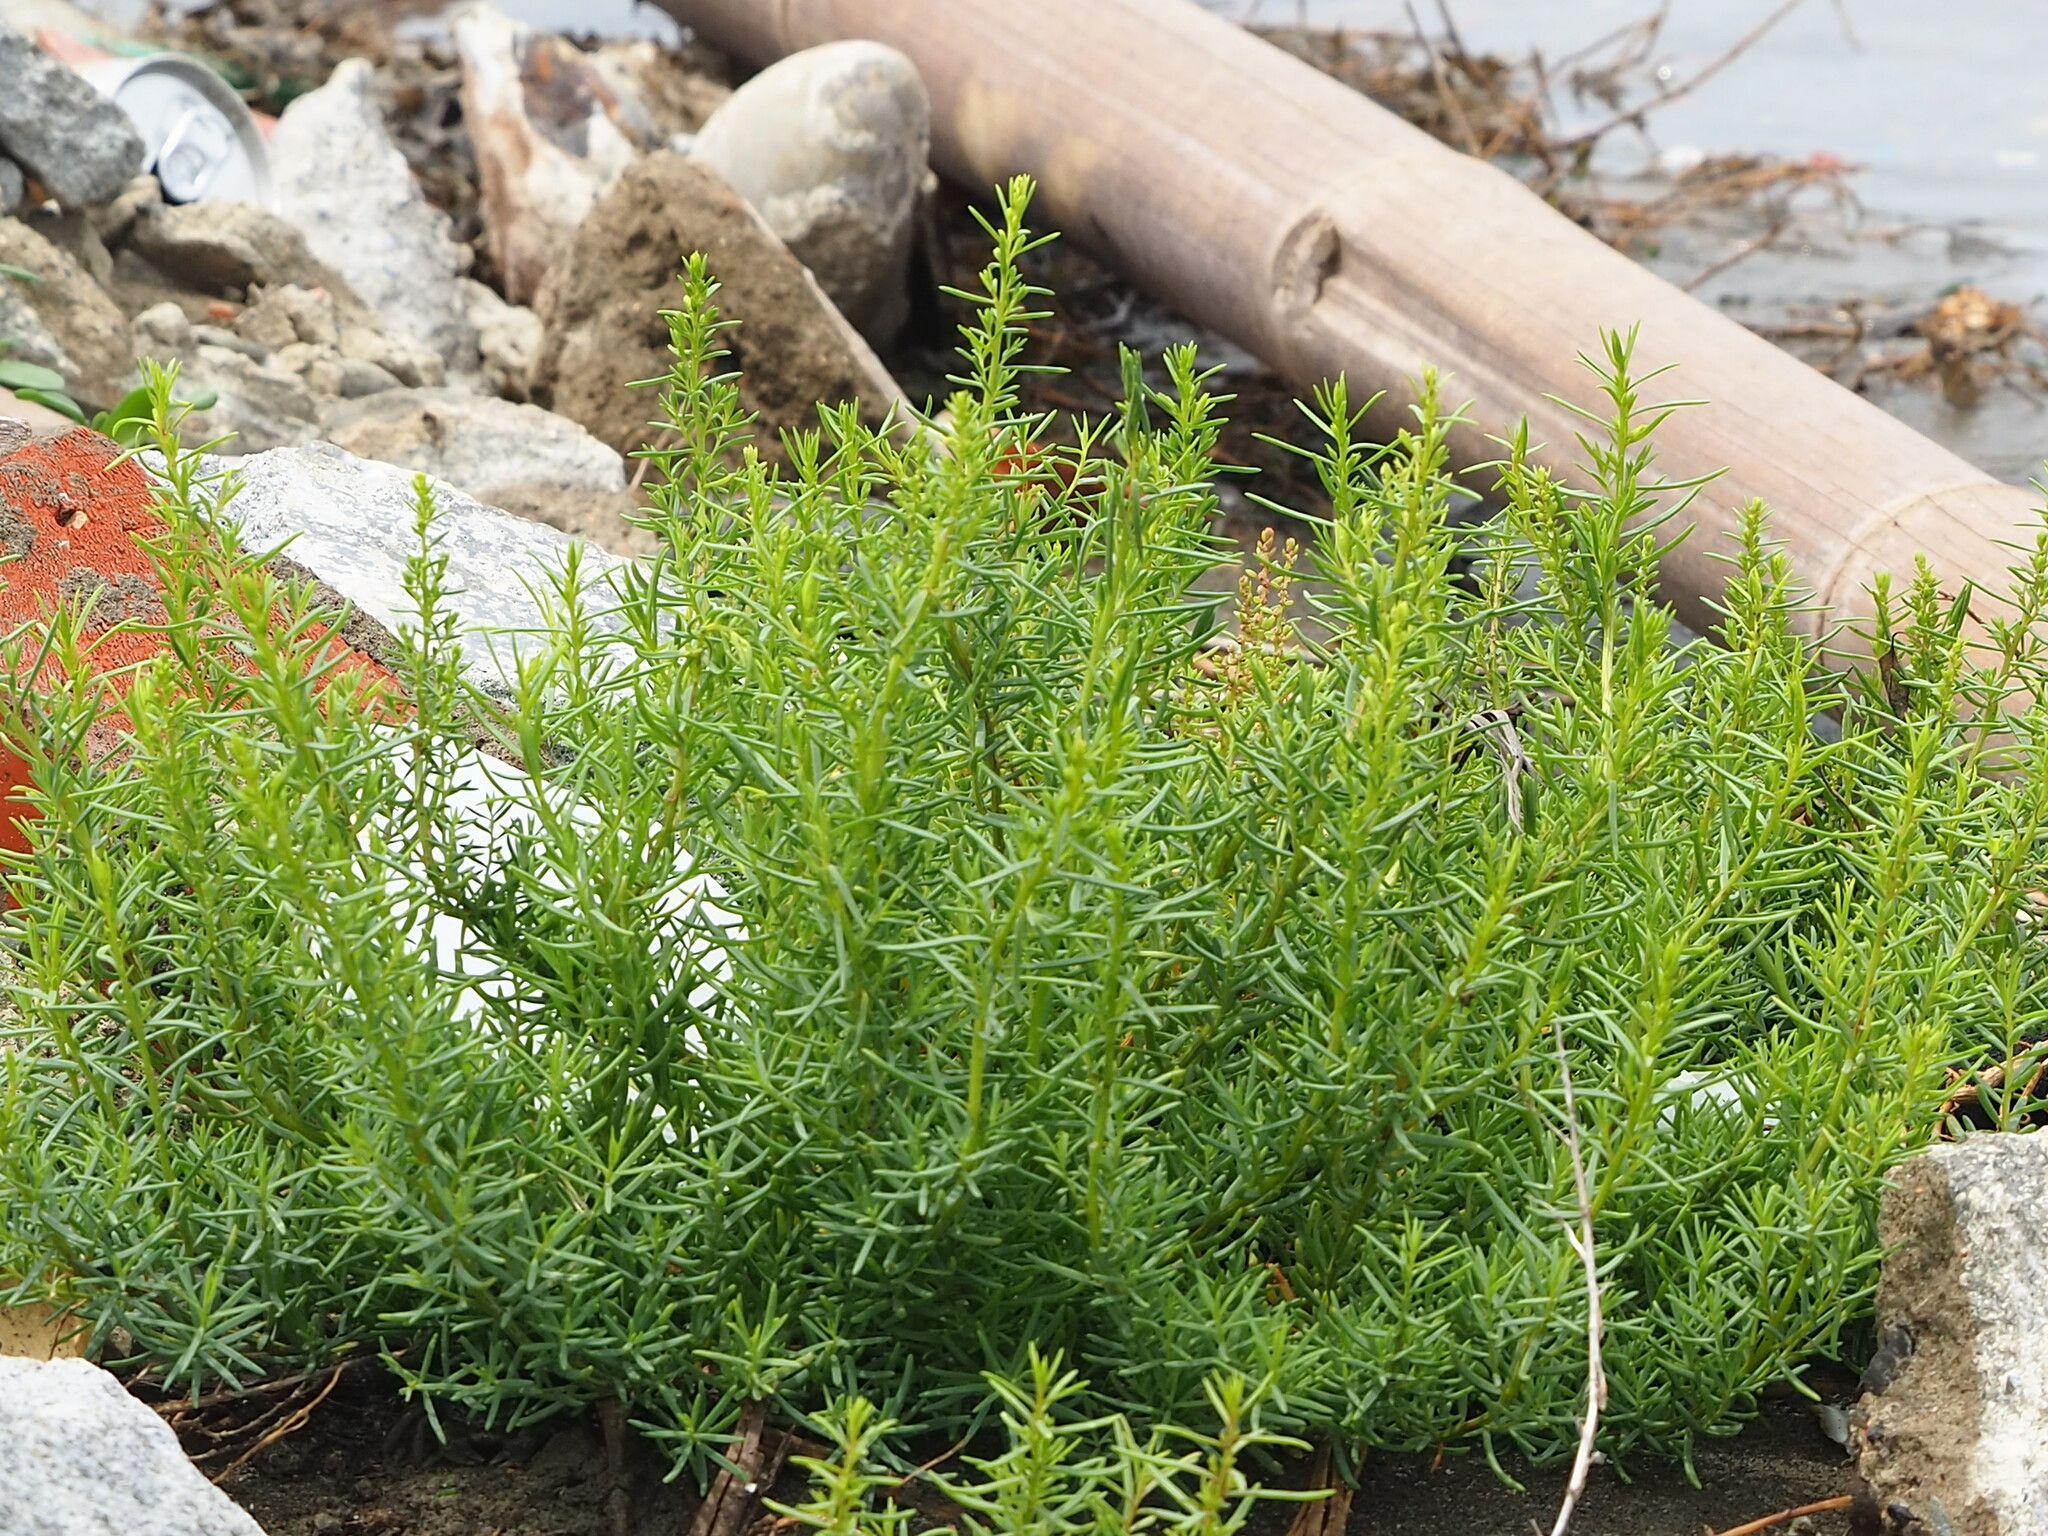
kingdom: Plantae
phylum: Tracheophyta
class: Magnoliopsida
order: Caryophyllales
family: Amaranthaceae
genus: Suaeda
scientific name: Suaeda maritima
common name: Annual sea-blite
